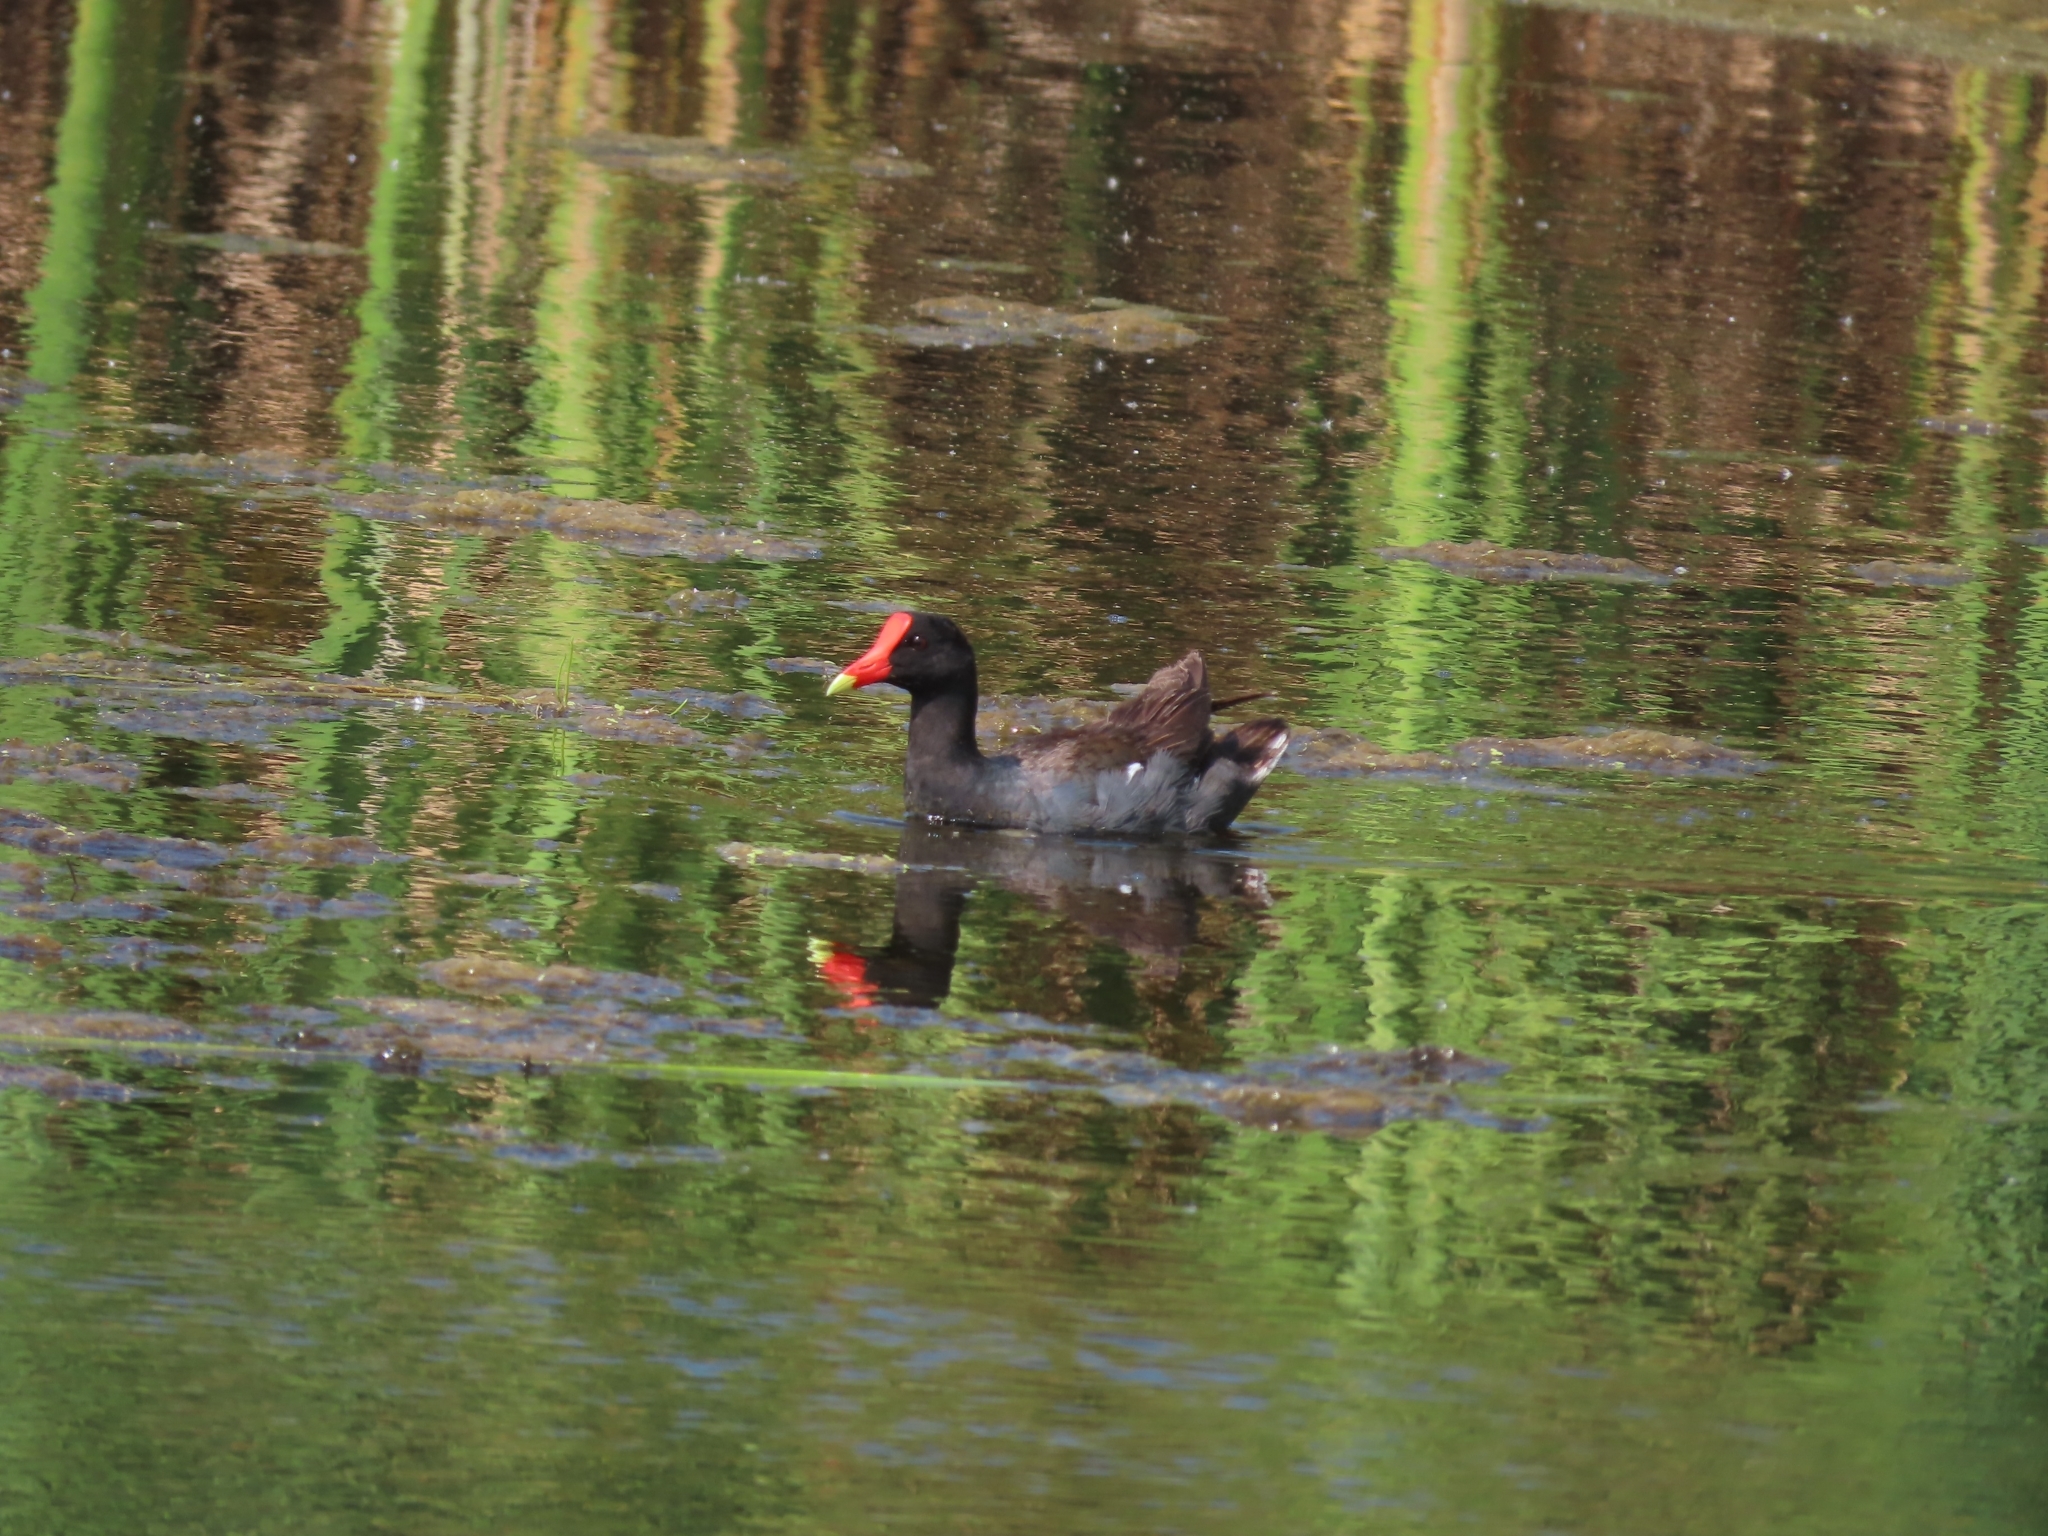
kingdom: Animalia
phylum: Chordata
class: Aves
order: Gruiformes
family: Rallidae
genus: Gallinula
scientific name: Gallinula chloropus
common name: Common moorhen
